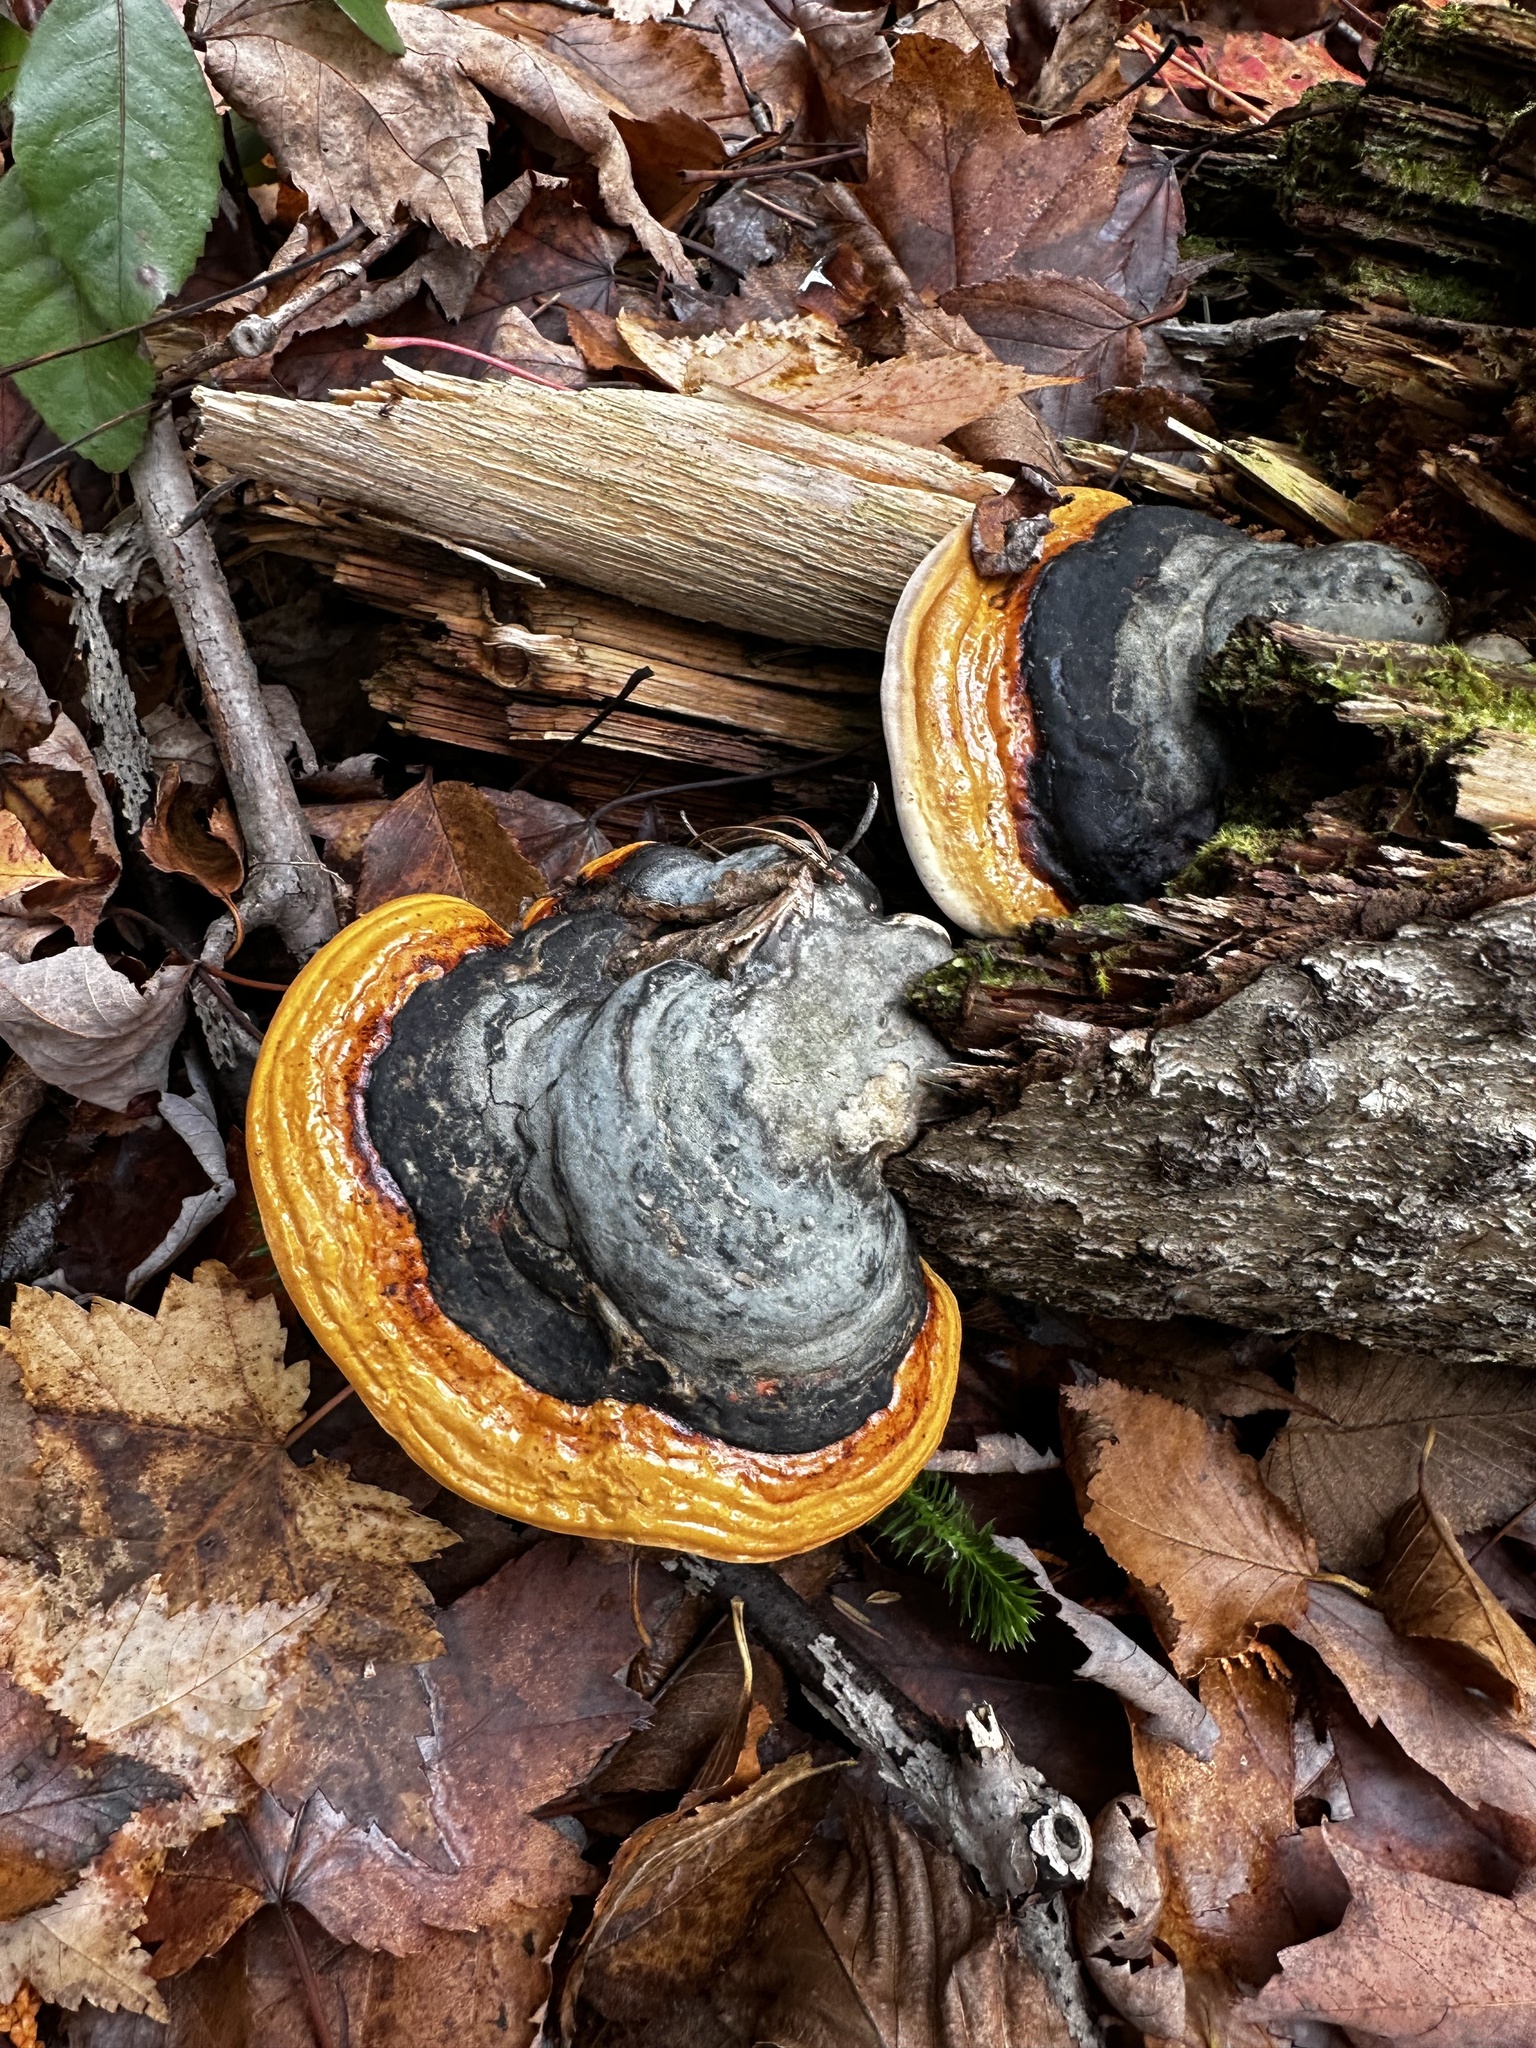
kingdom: Fungi
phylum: Basidiomycota
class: Agaricomycetes
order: Polyporales
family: Fomitopsidaceae
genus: Fomitopsis
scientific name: Fomitopsis mounceae
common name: Northern red belt
